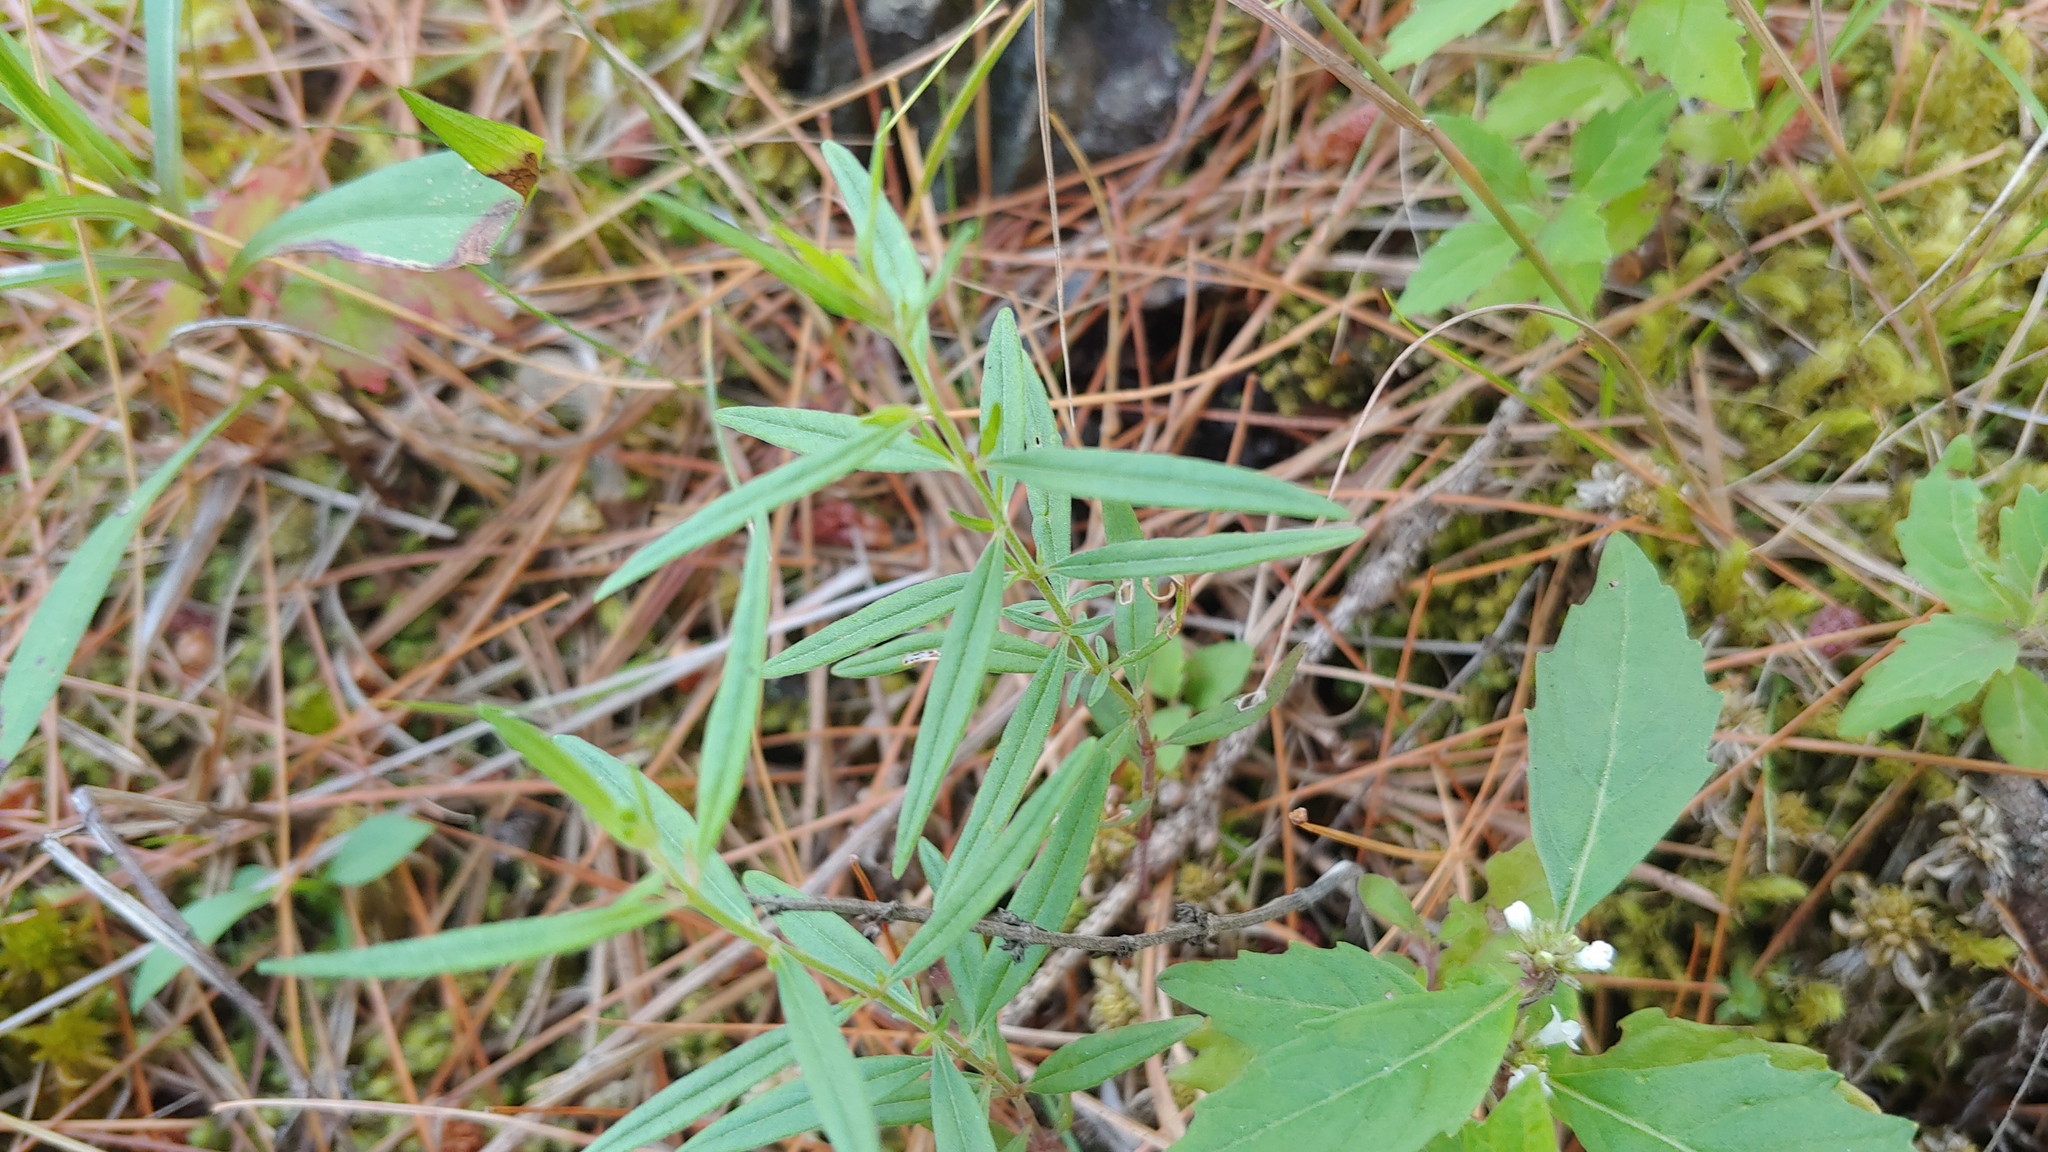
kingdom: Plantae
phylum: Tracheophyta
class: Magnoliopsida
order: Lamiales
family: Plantaginaceae
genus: Veronica
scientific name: Veronica scutellata
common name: Marsh speedwell
